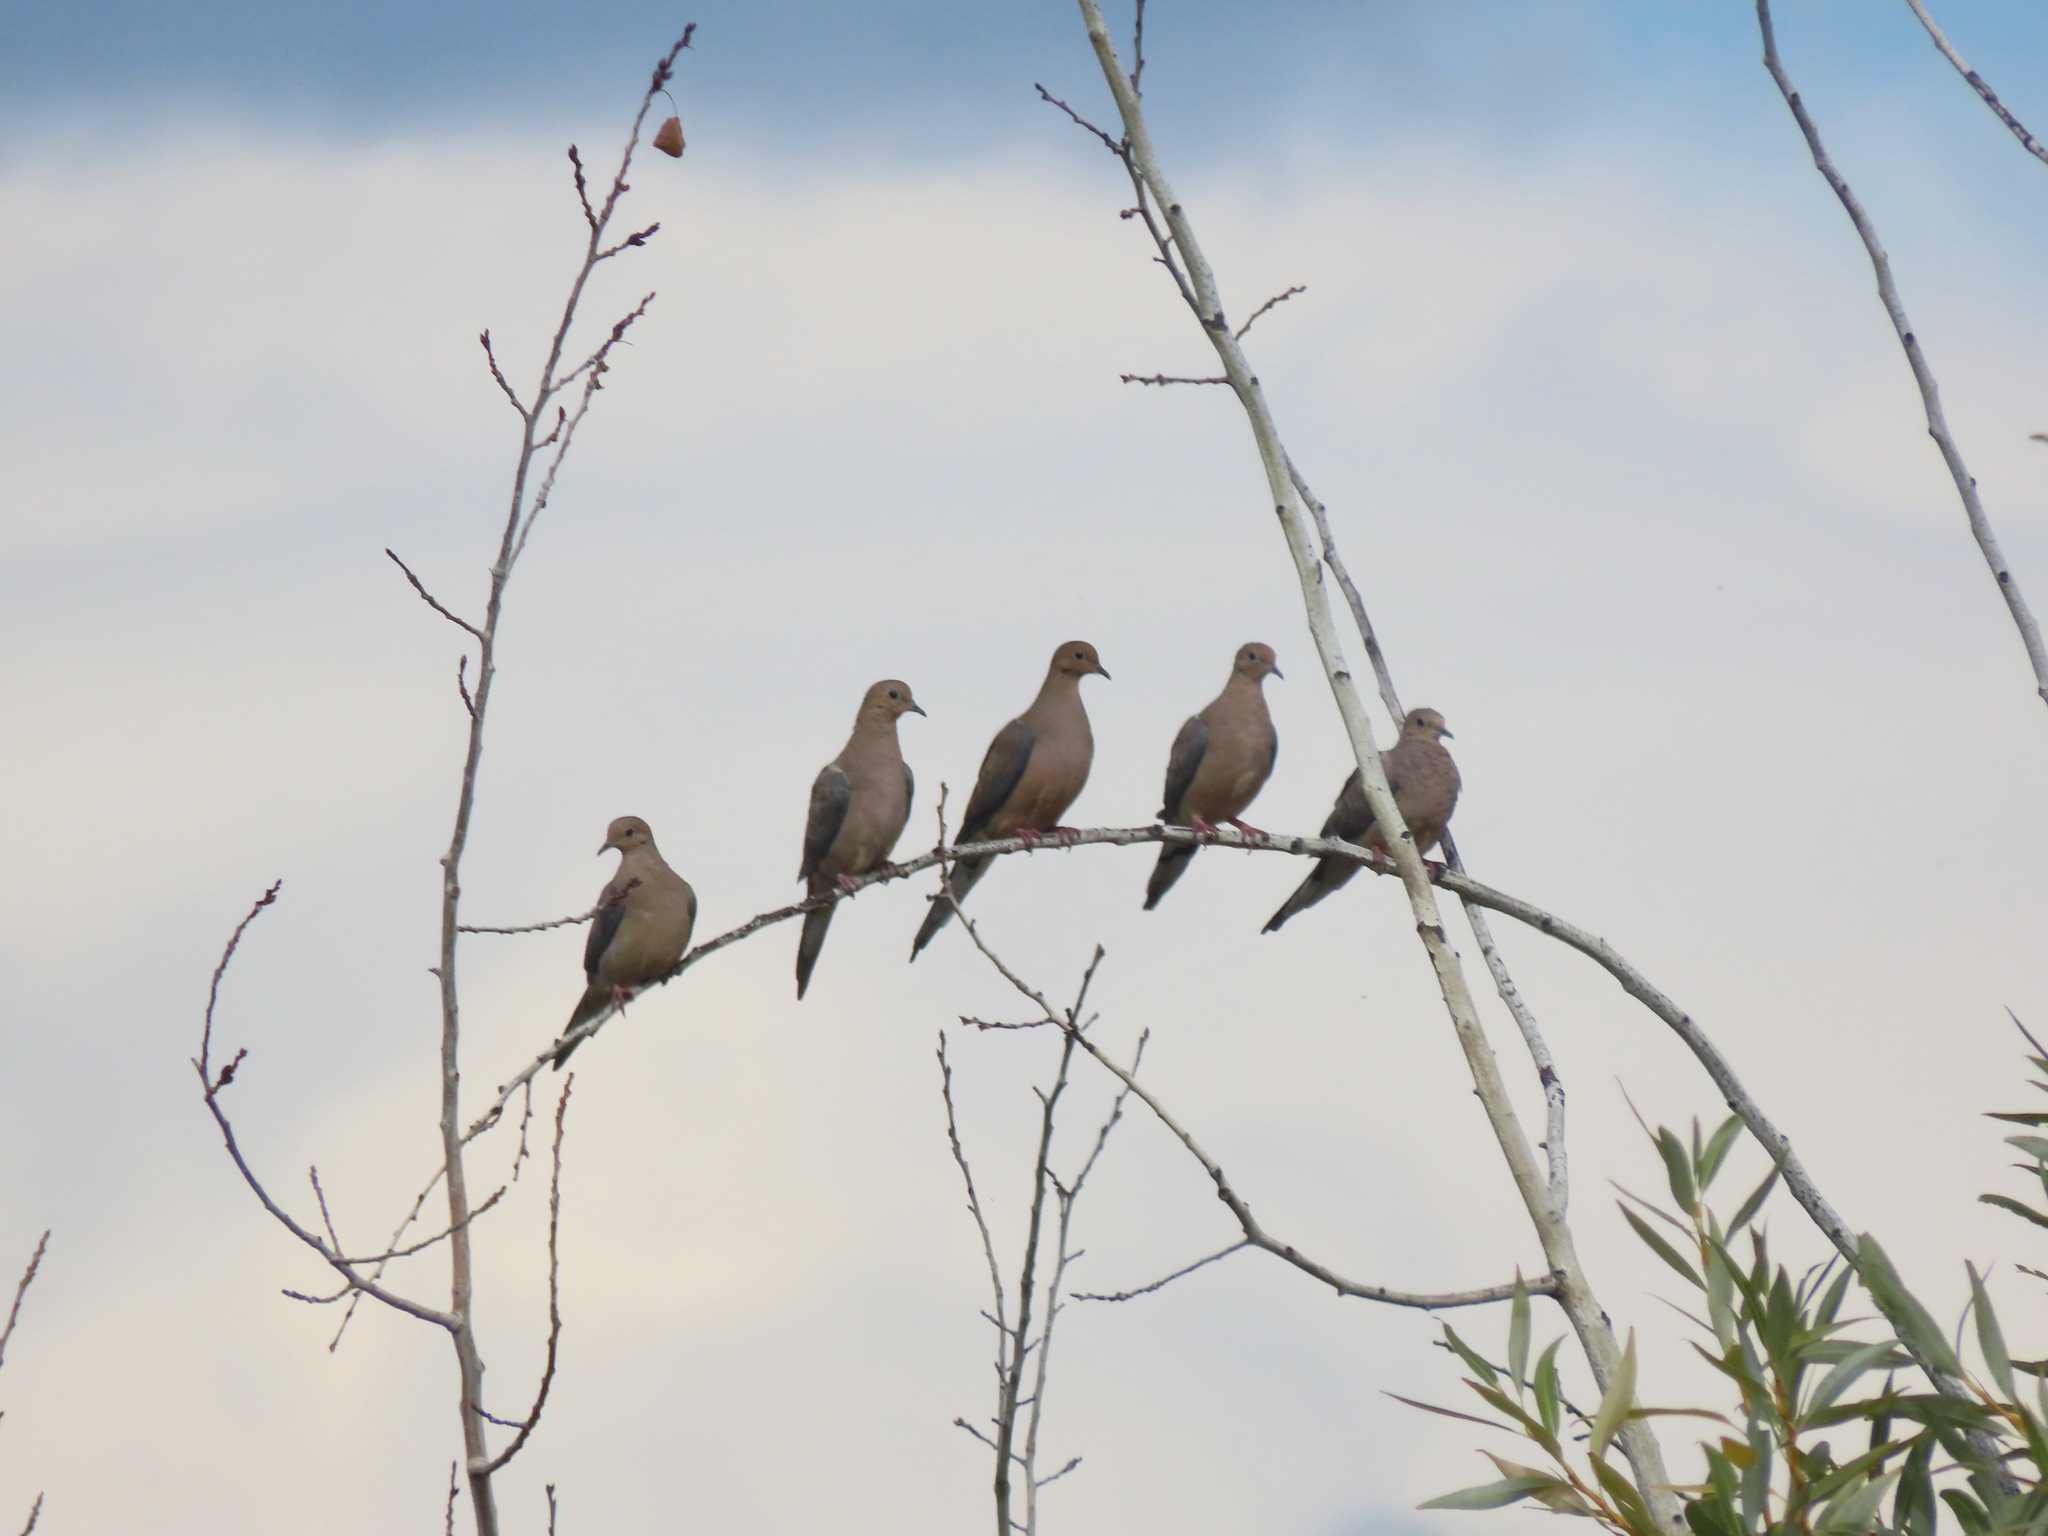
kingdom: Animalia
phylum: Chordata
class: Aves
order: Columbiformes
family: Columbidae
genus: Zenaida
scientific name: Zenaida macroura
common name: Mourning dove
